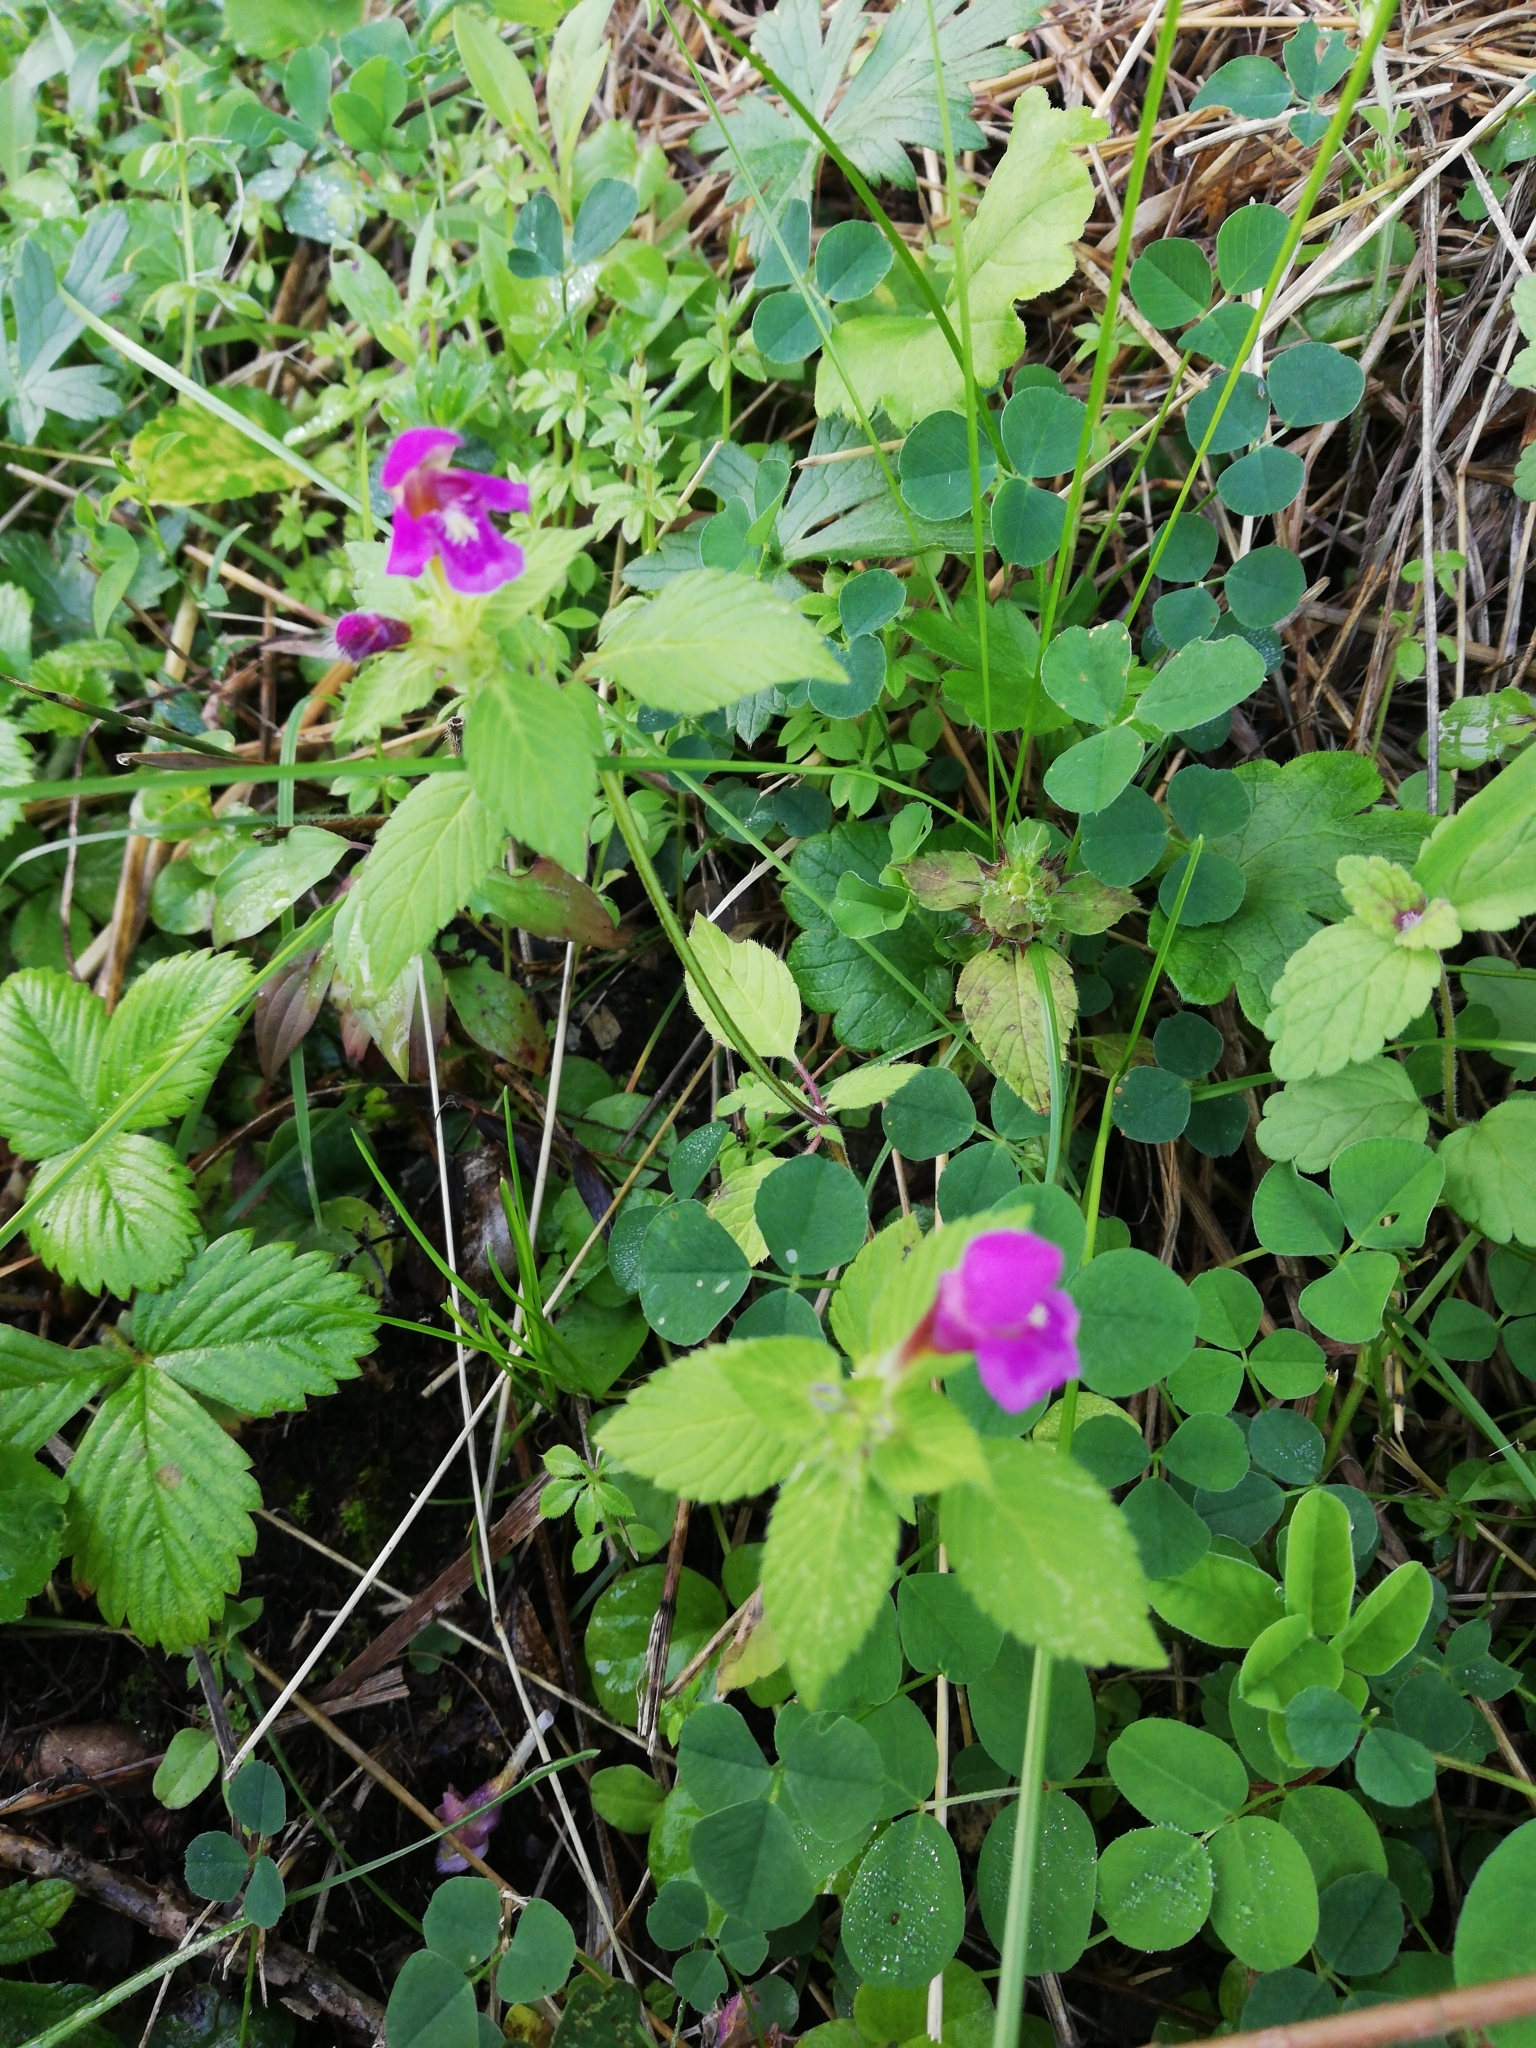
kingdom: Plantae
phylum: Tracheophyta
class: Magnoliopsida
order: Lamiales
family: Lamiaceae
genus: Galeopsis
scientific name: Galeopsis pubescens
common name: Downy hemp-nettle
